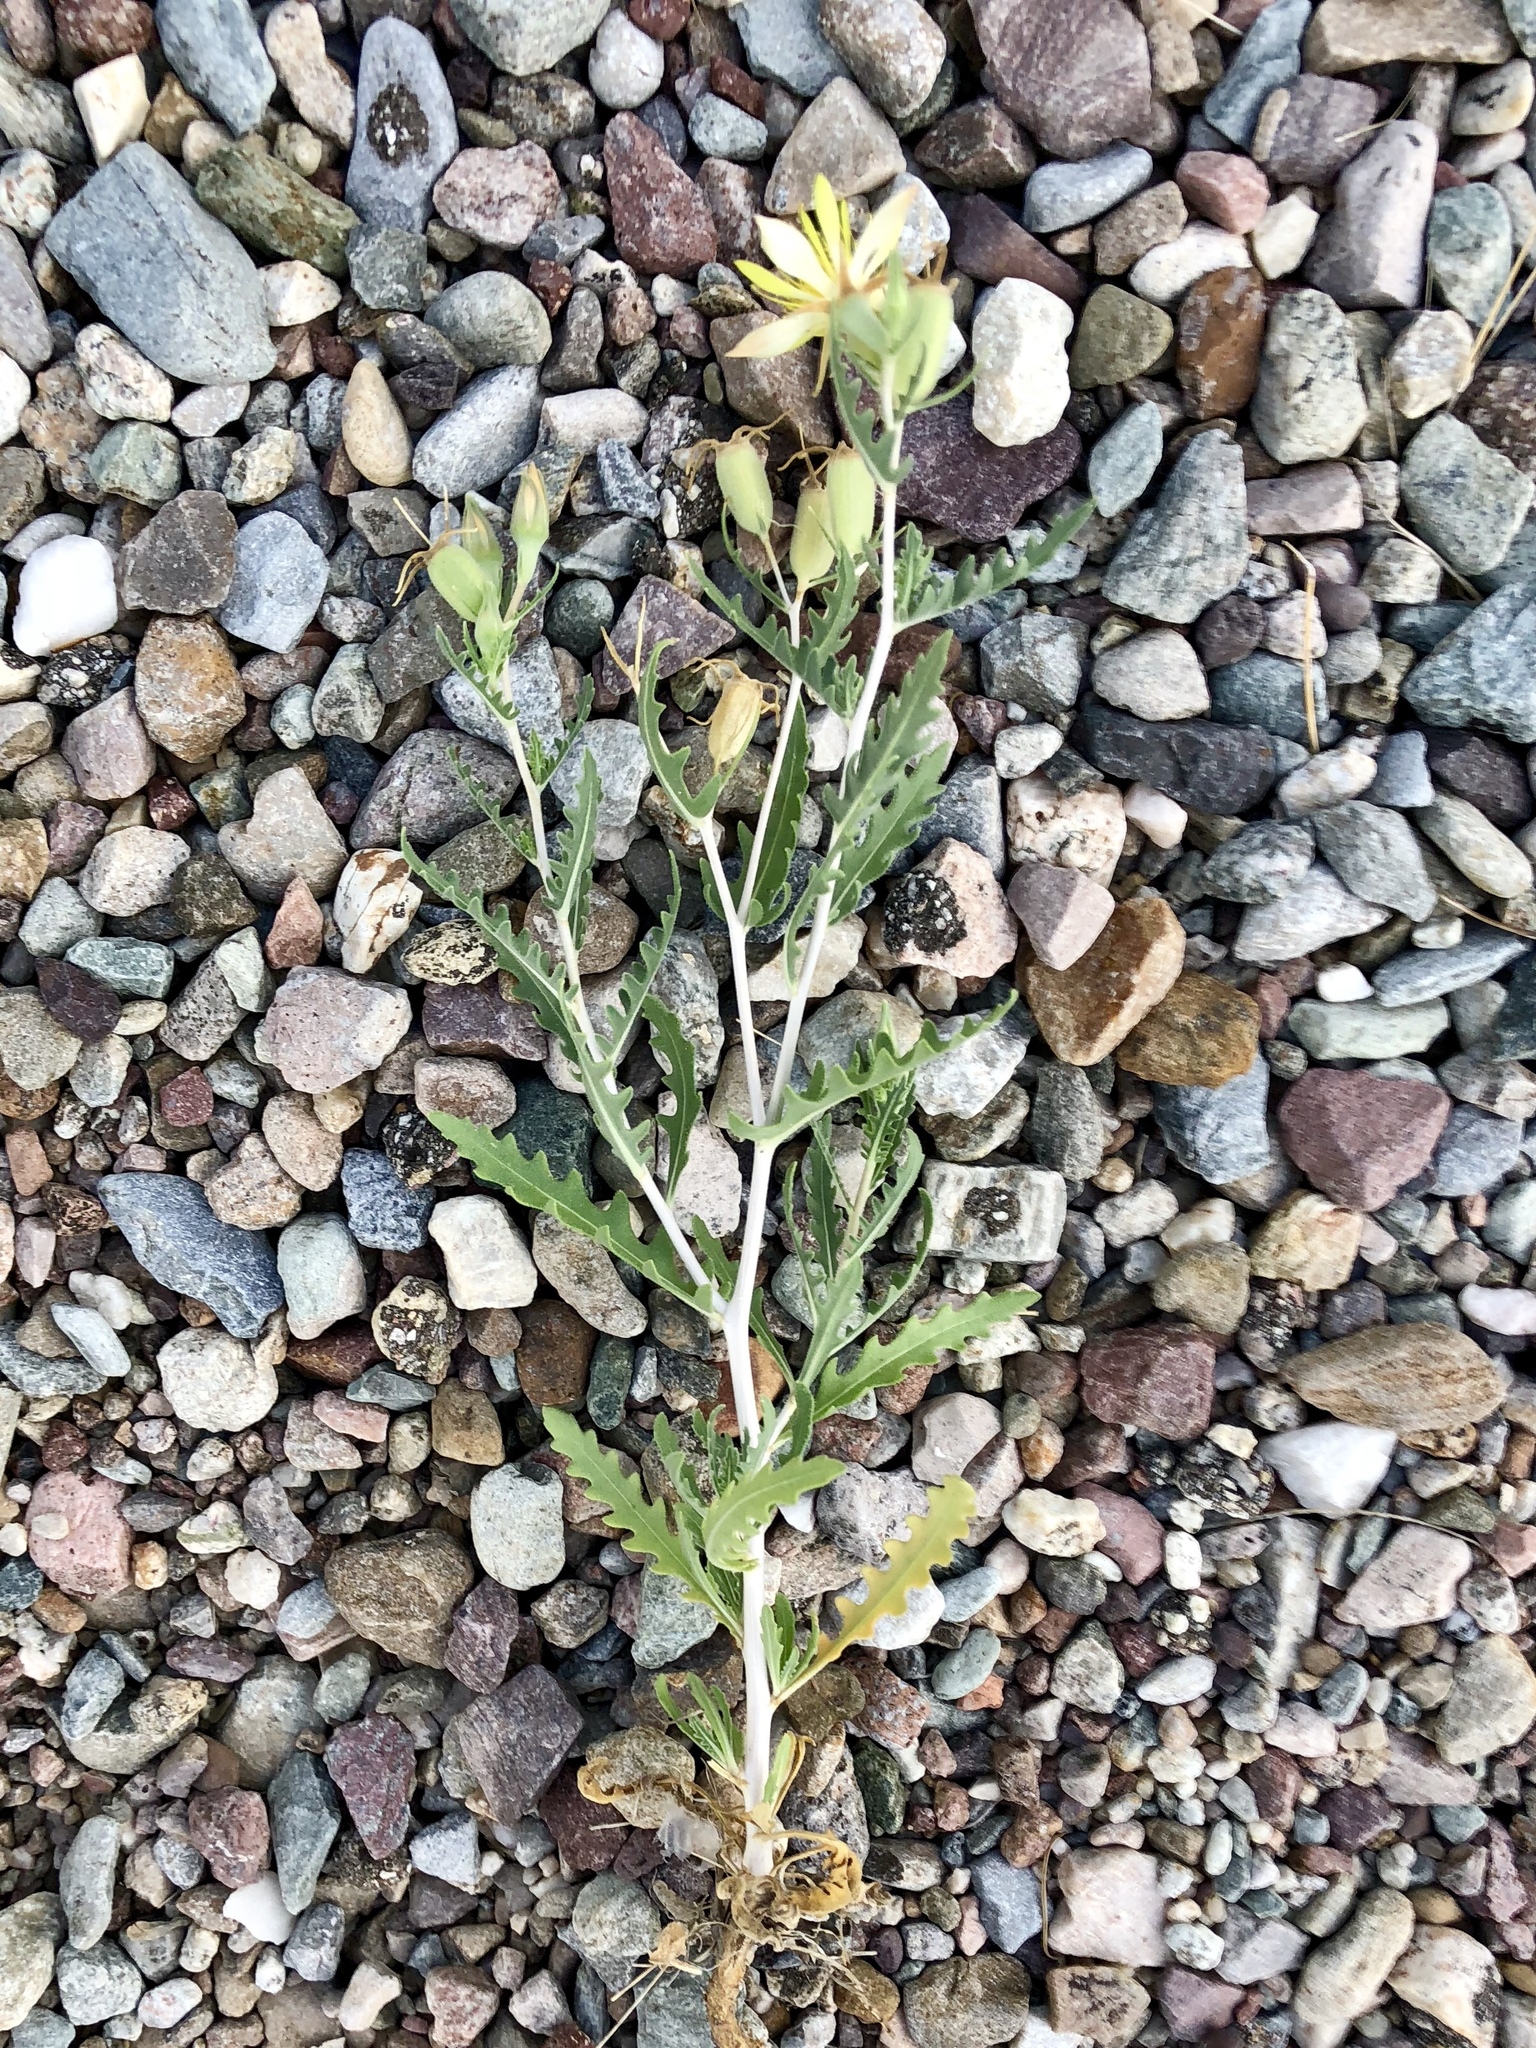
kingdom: Plantae
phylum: Tracheophyta
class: Magnoliopsida
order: Cornales
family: Loasaceae
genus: Mentzelia
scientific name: Mentzelia longiloba
